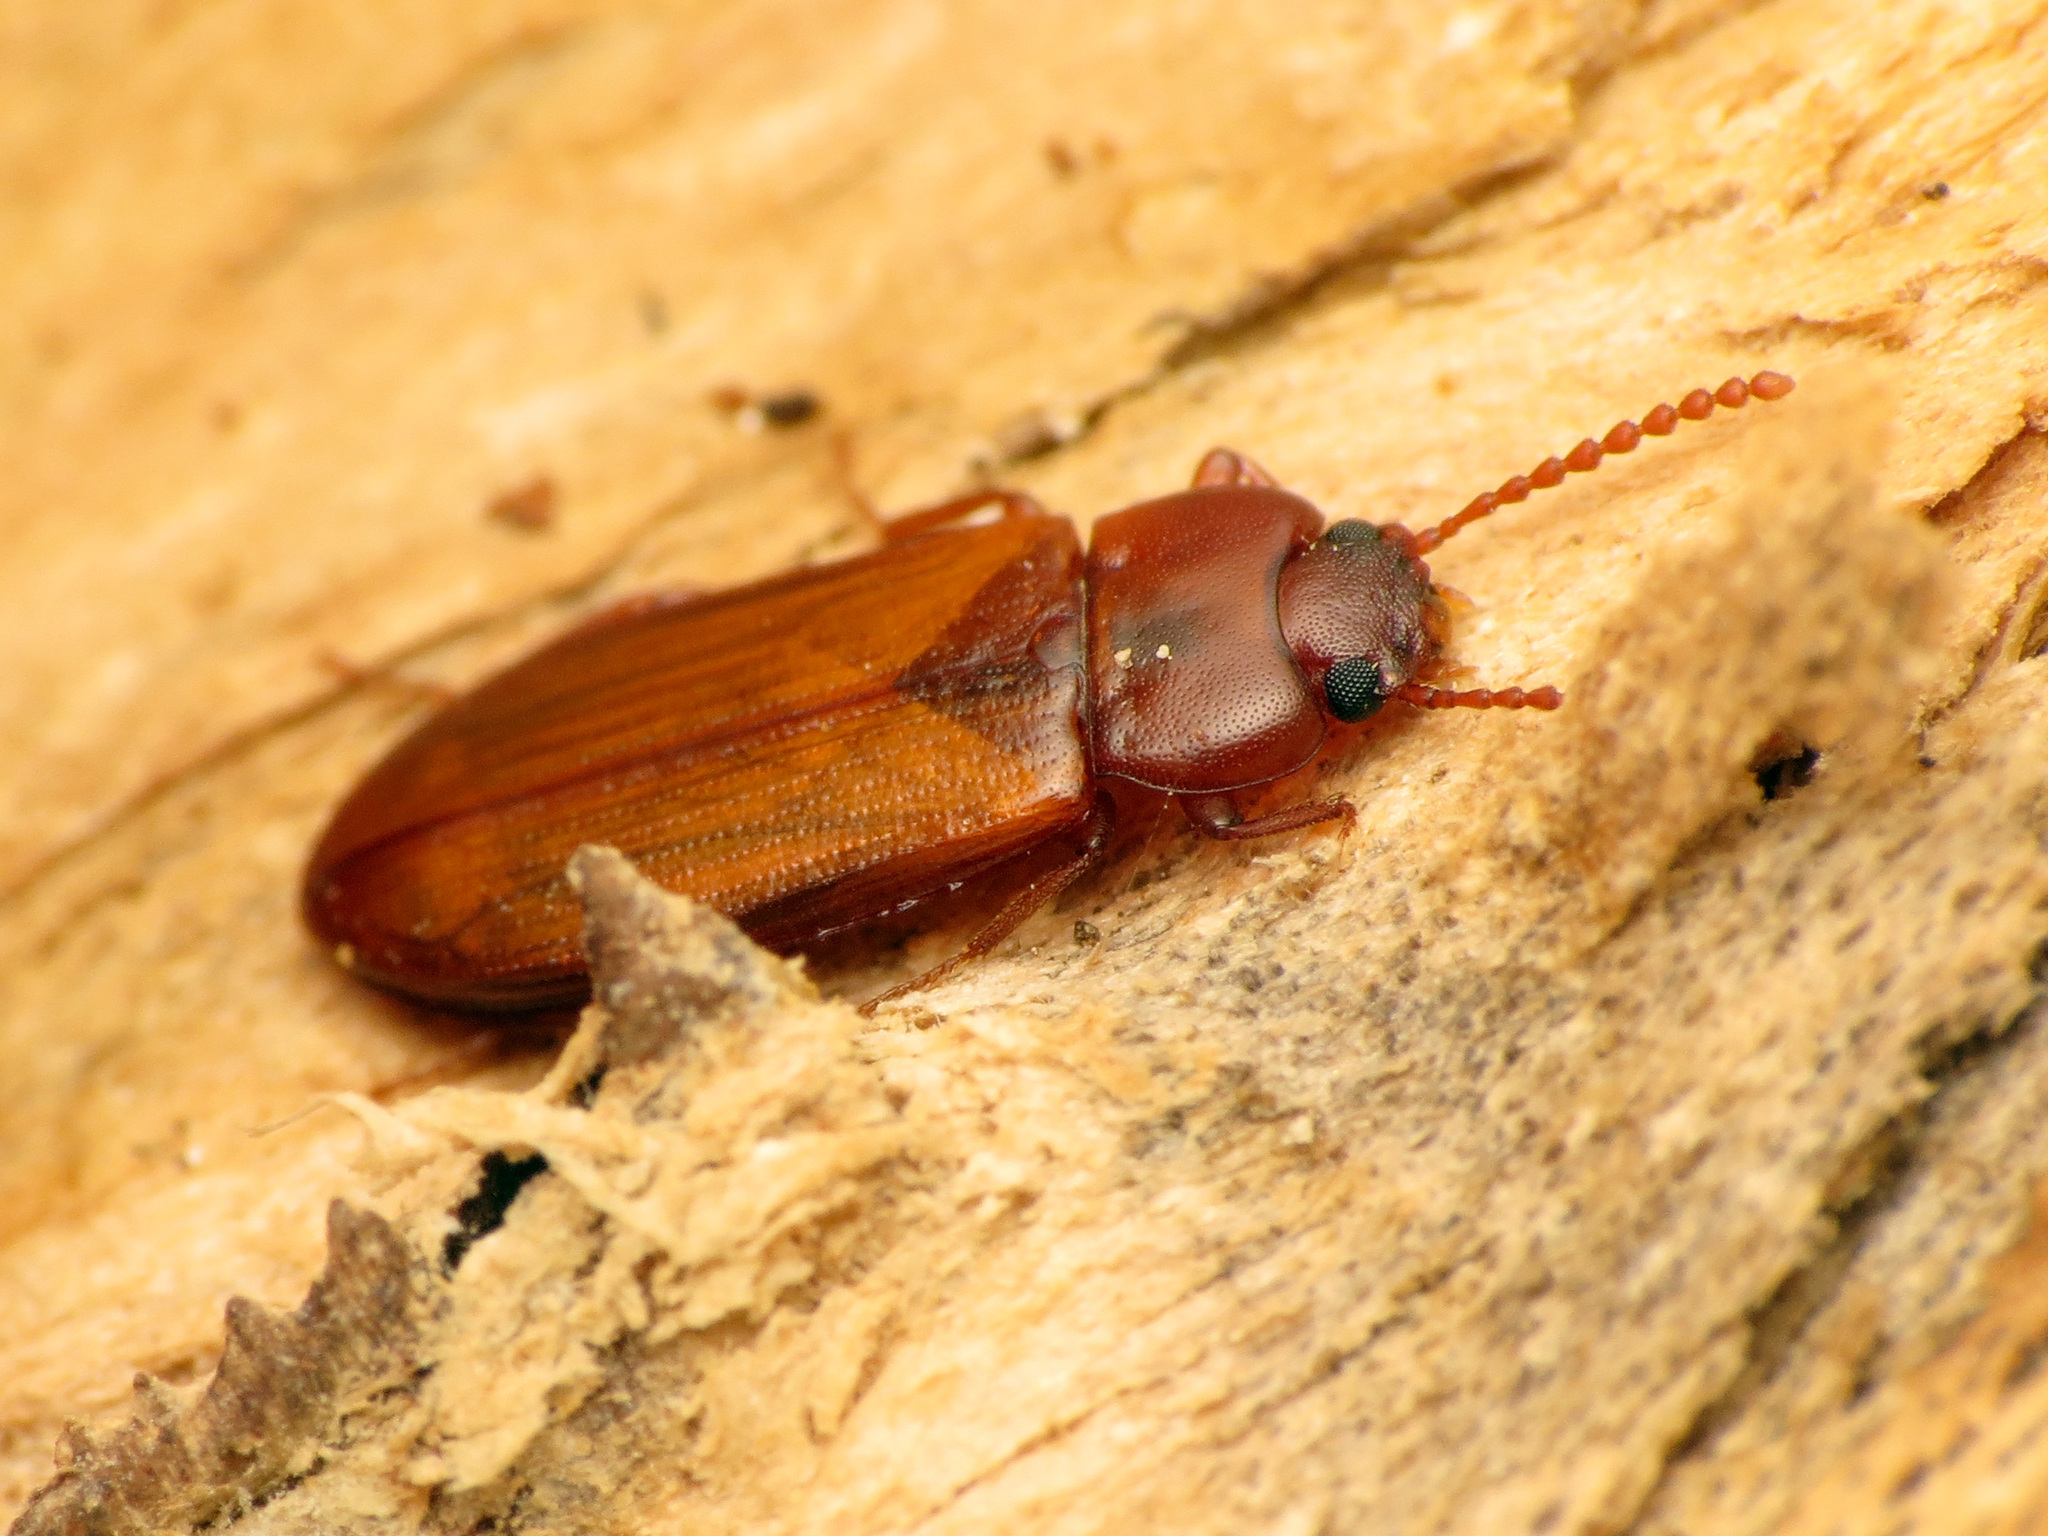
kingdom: Animalia
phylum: Arthropoda
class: Insecta
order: Coleoptera
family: Tenebrionidae
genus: Adelina
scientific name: Adelina pallida
